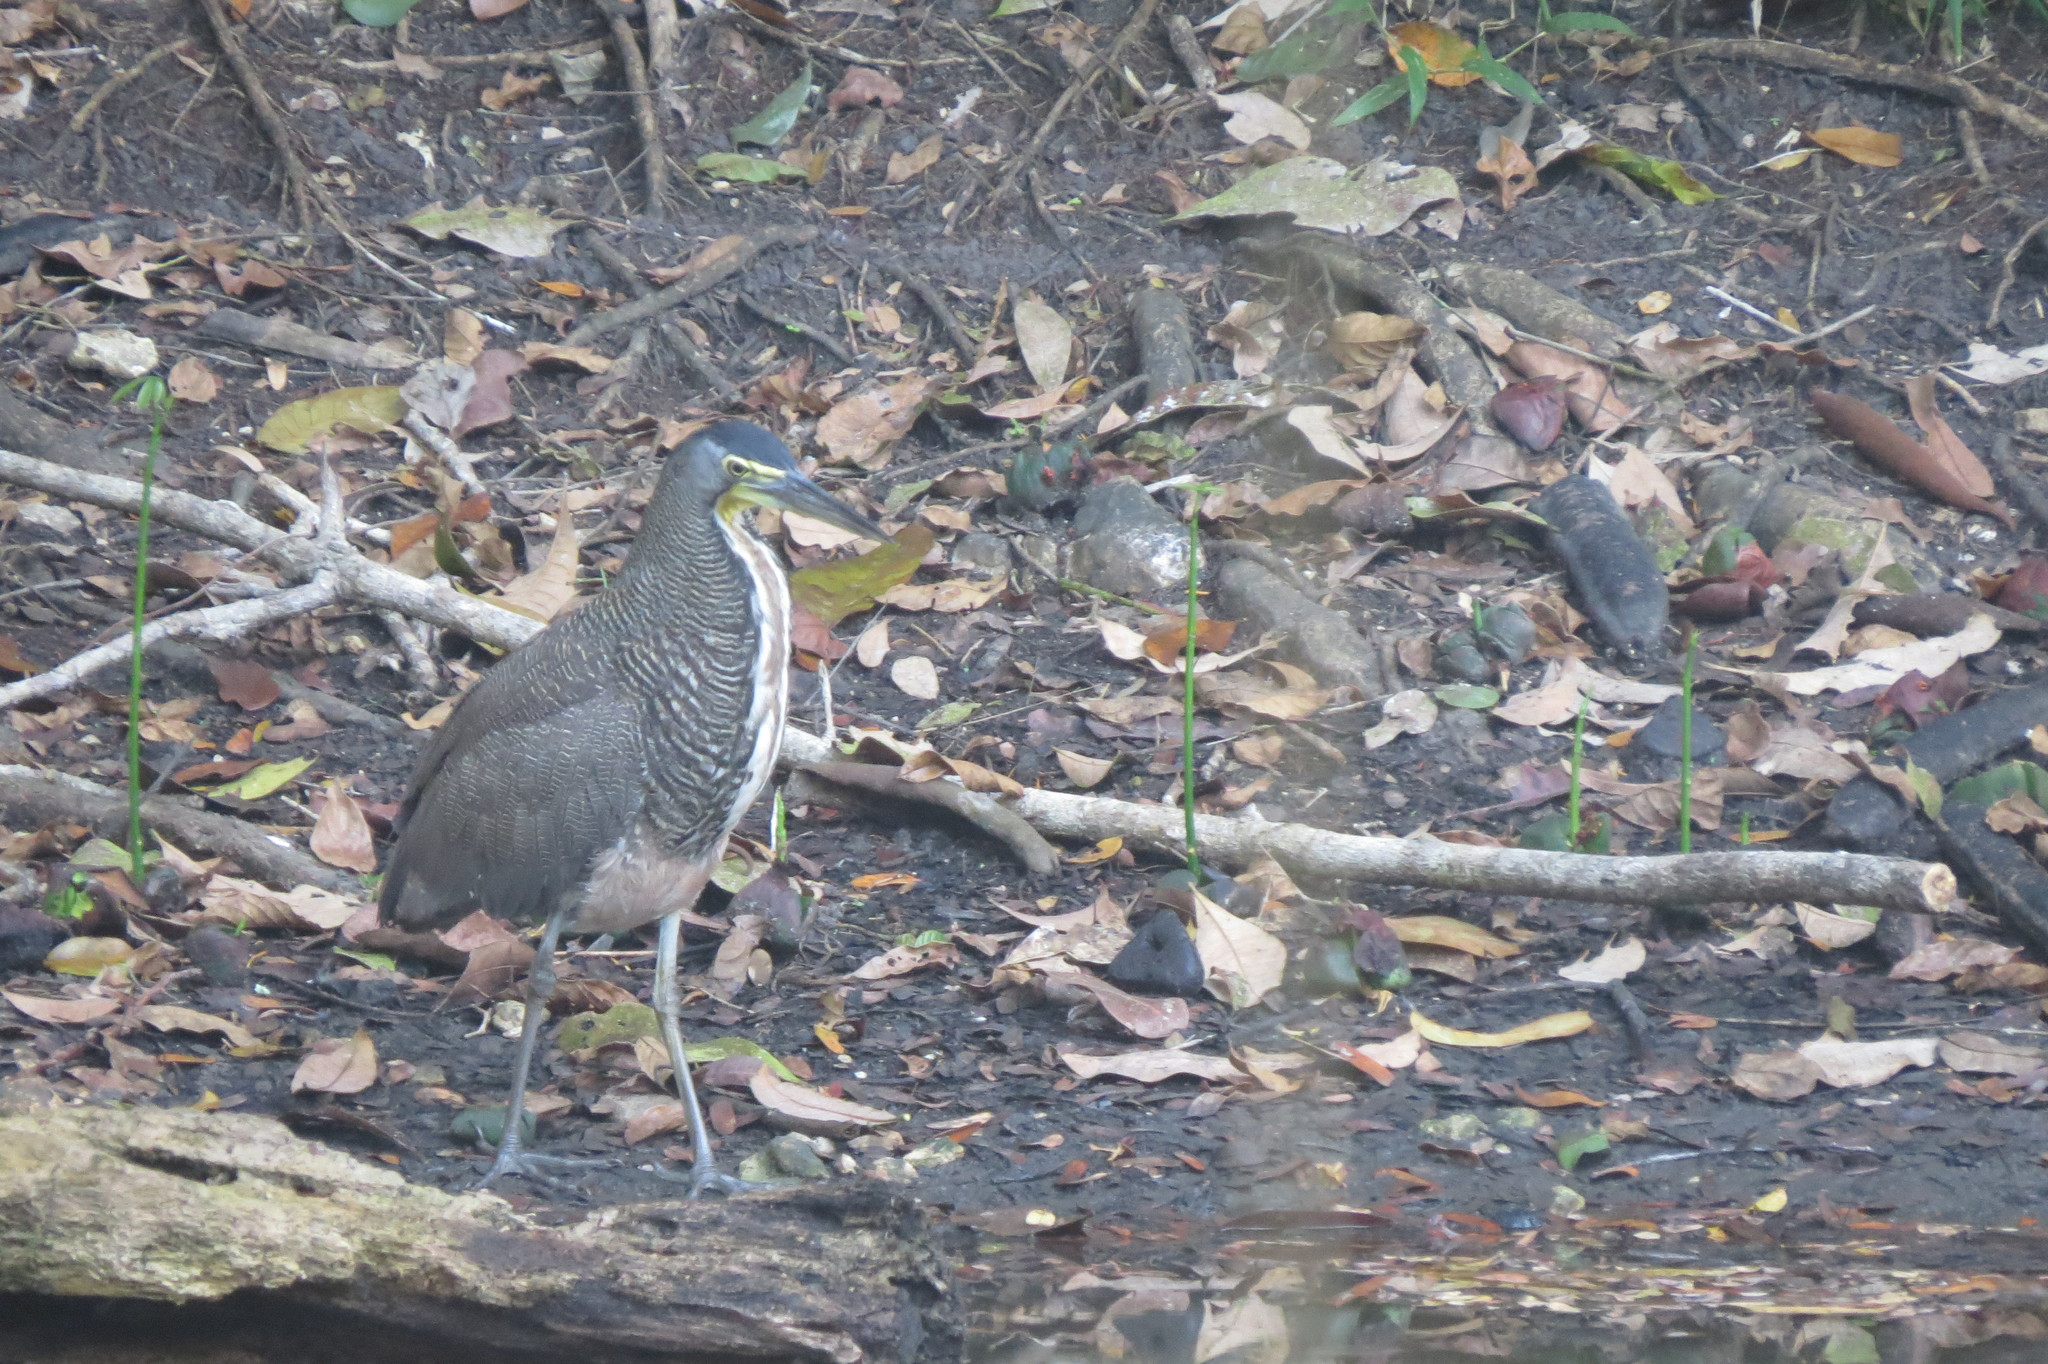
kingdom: Animalia
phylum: Chordata
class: Aves
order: Pelecaniformes
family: Ardeidae
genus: Tigrisoma
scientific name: Tigrisoma mexicanum
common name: Bare-throated tiger-heron
